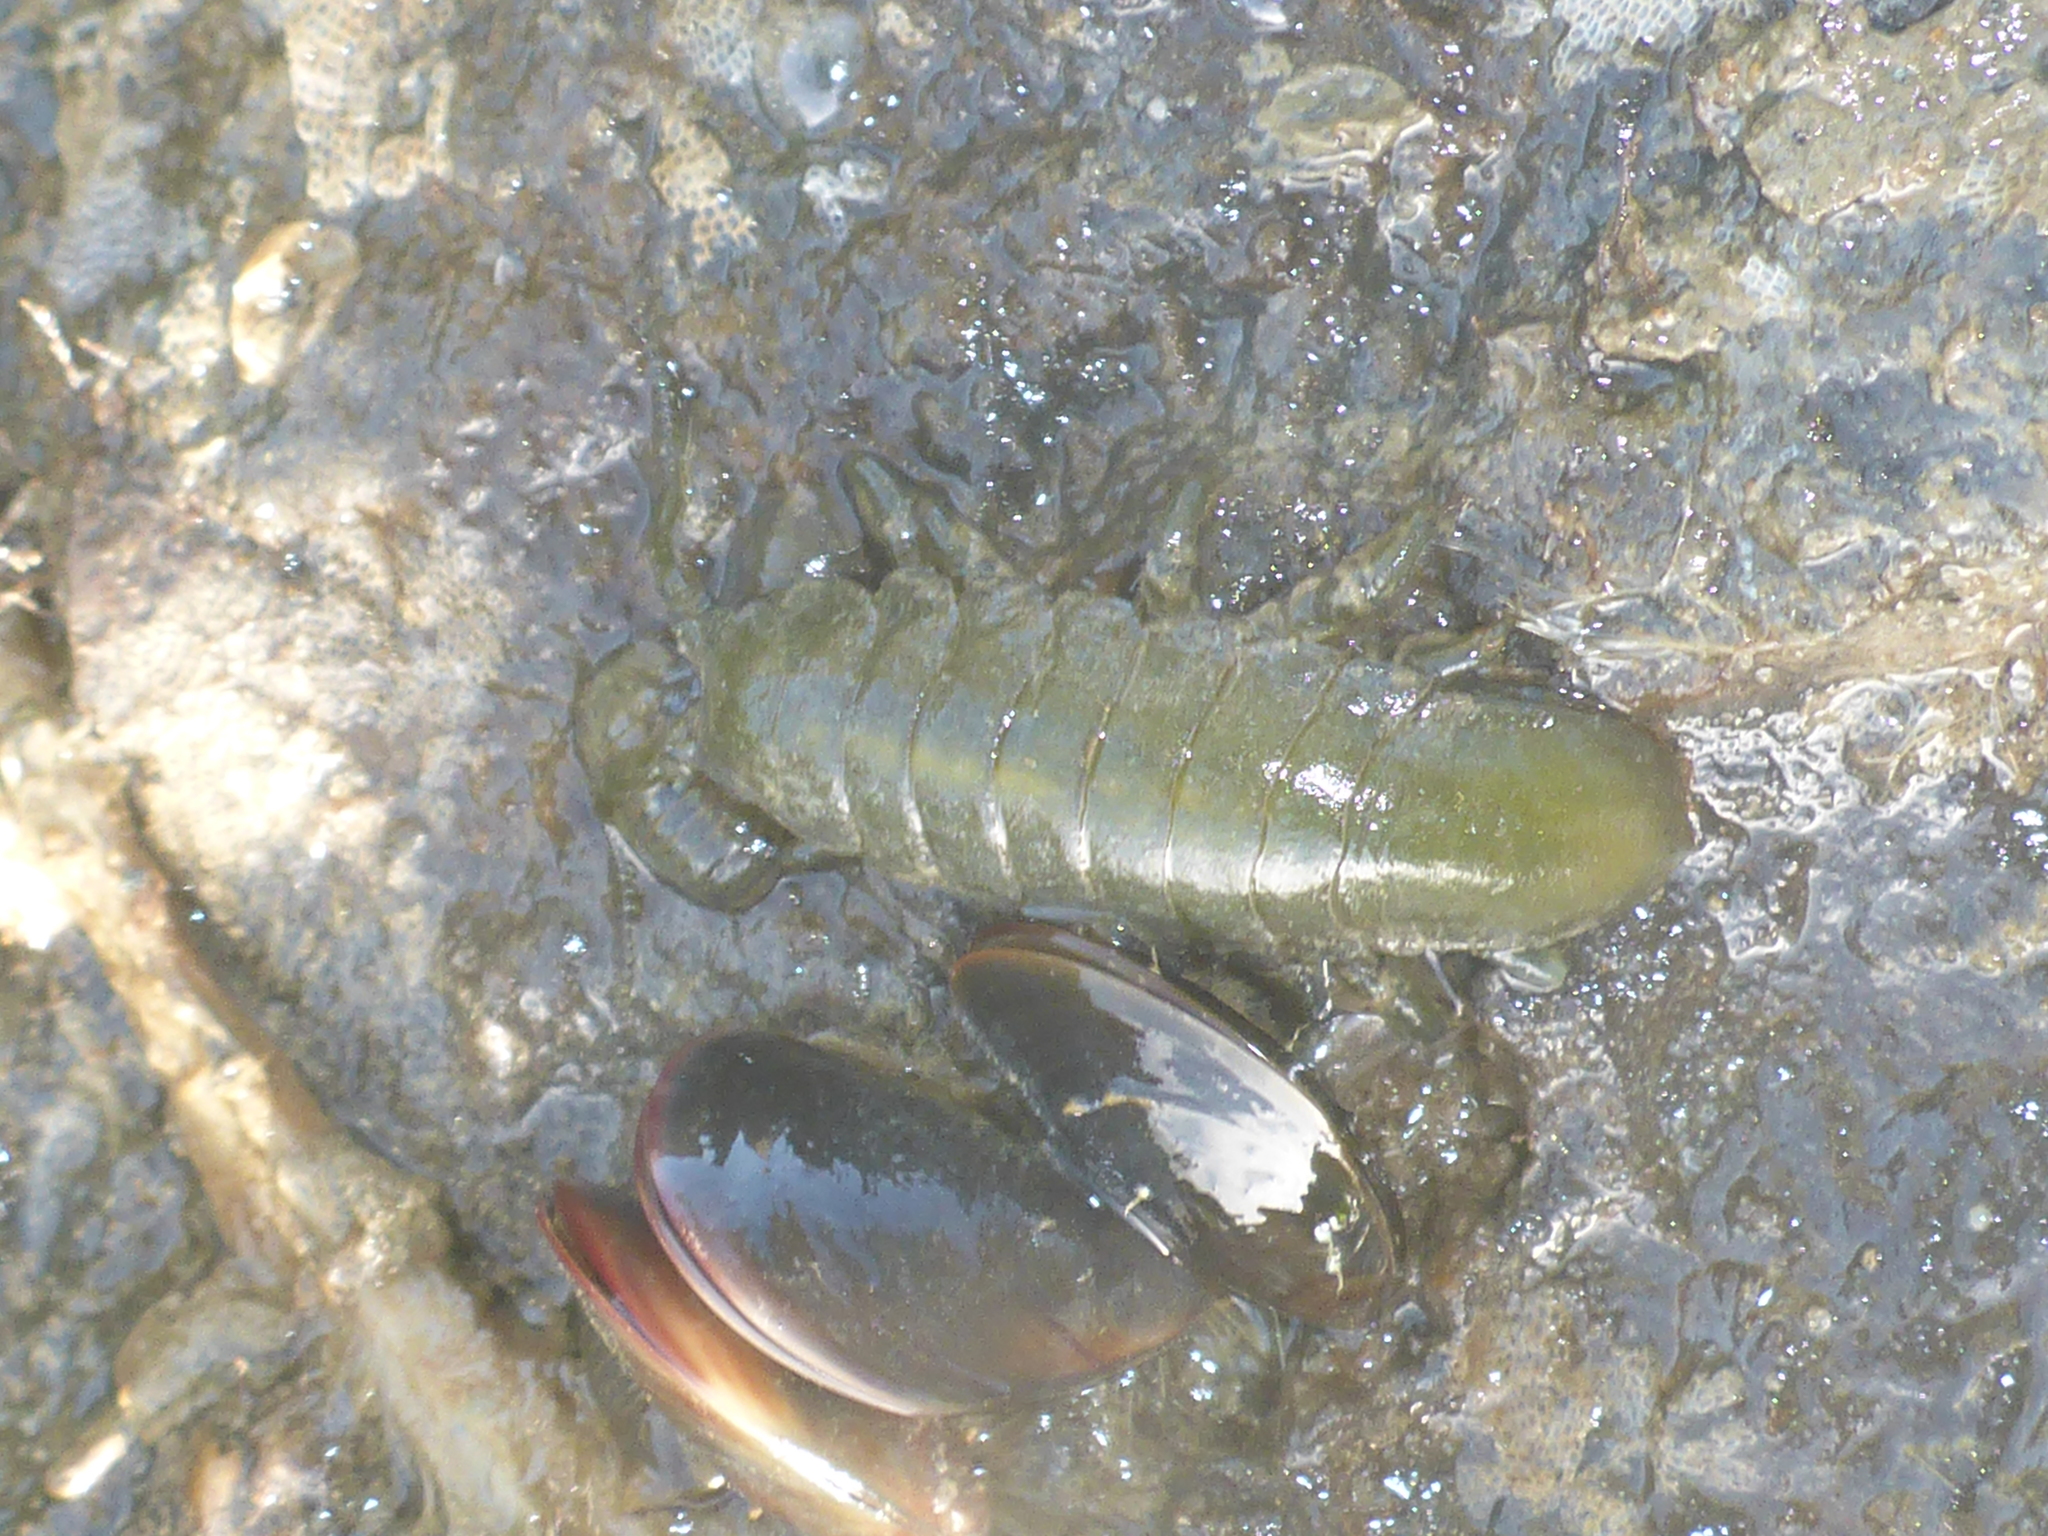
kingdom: Animalia
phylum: Arthropoda
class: Malacostraca
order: Isopoda
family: Idoteidae
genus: Pentidotea
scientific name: Pentidotea wosnesenskii
